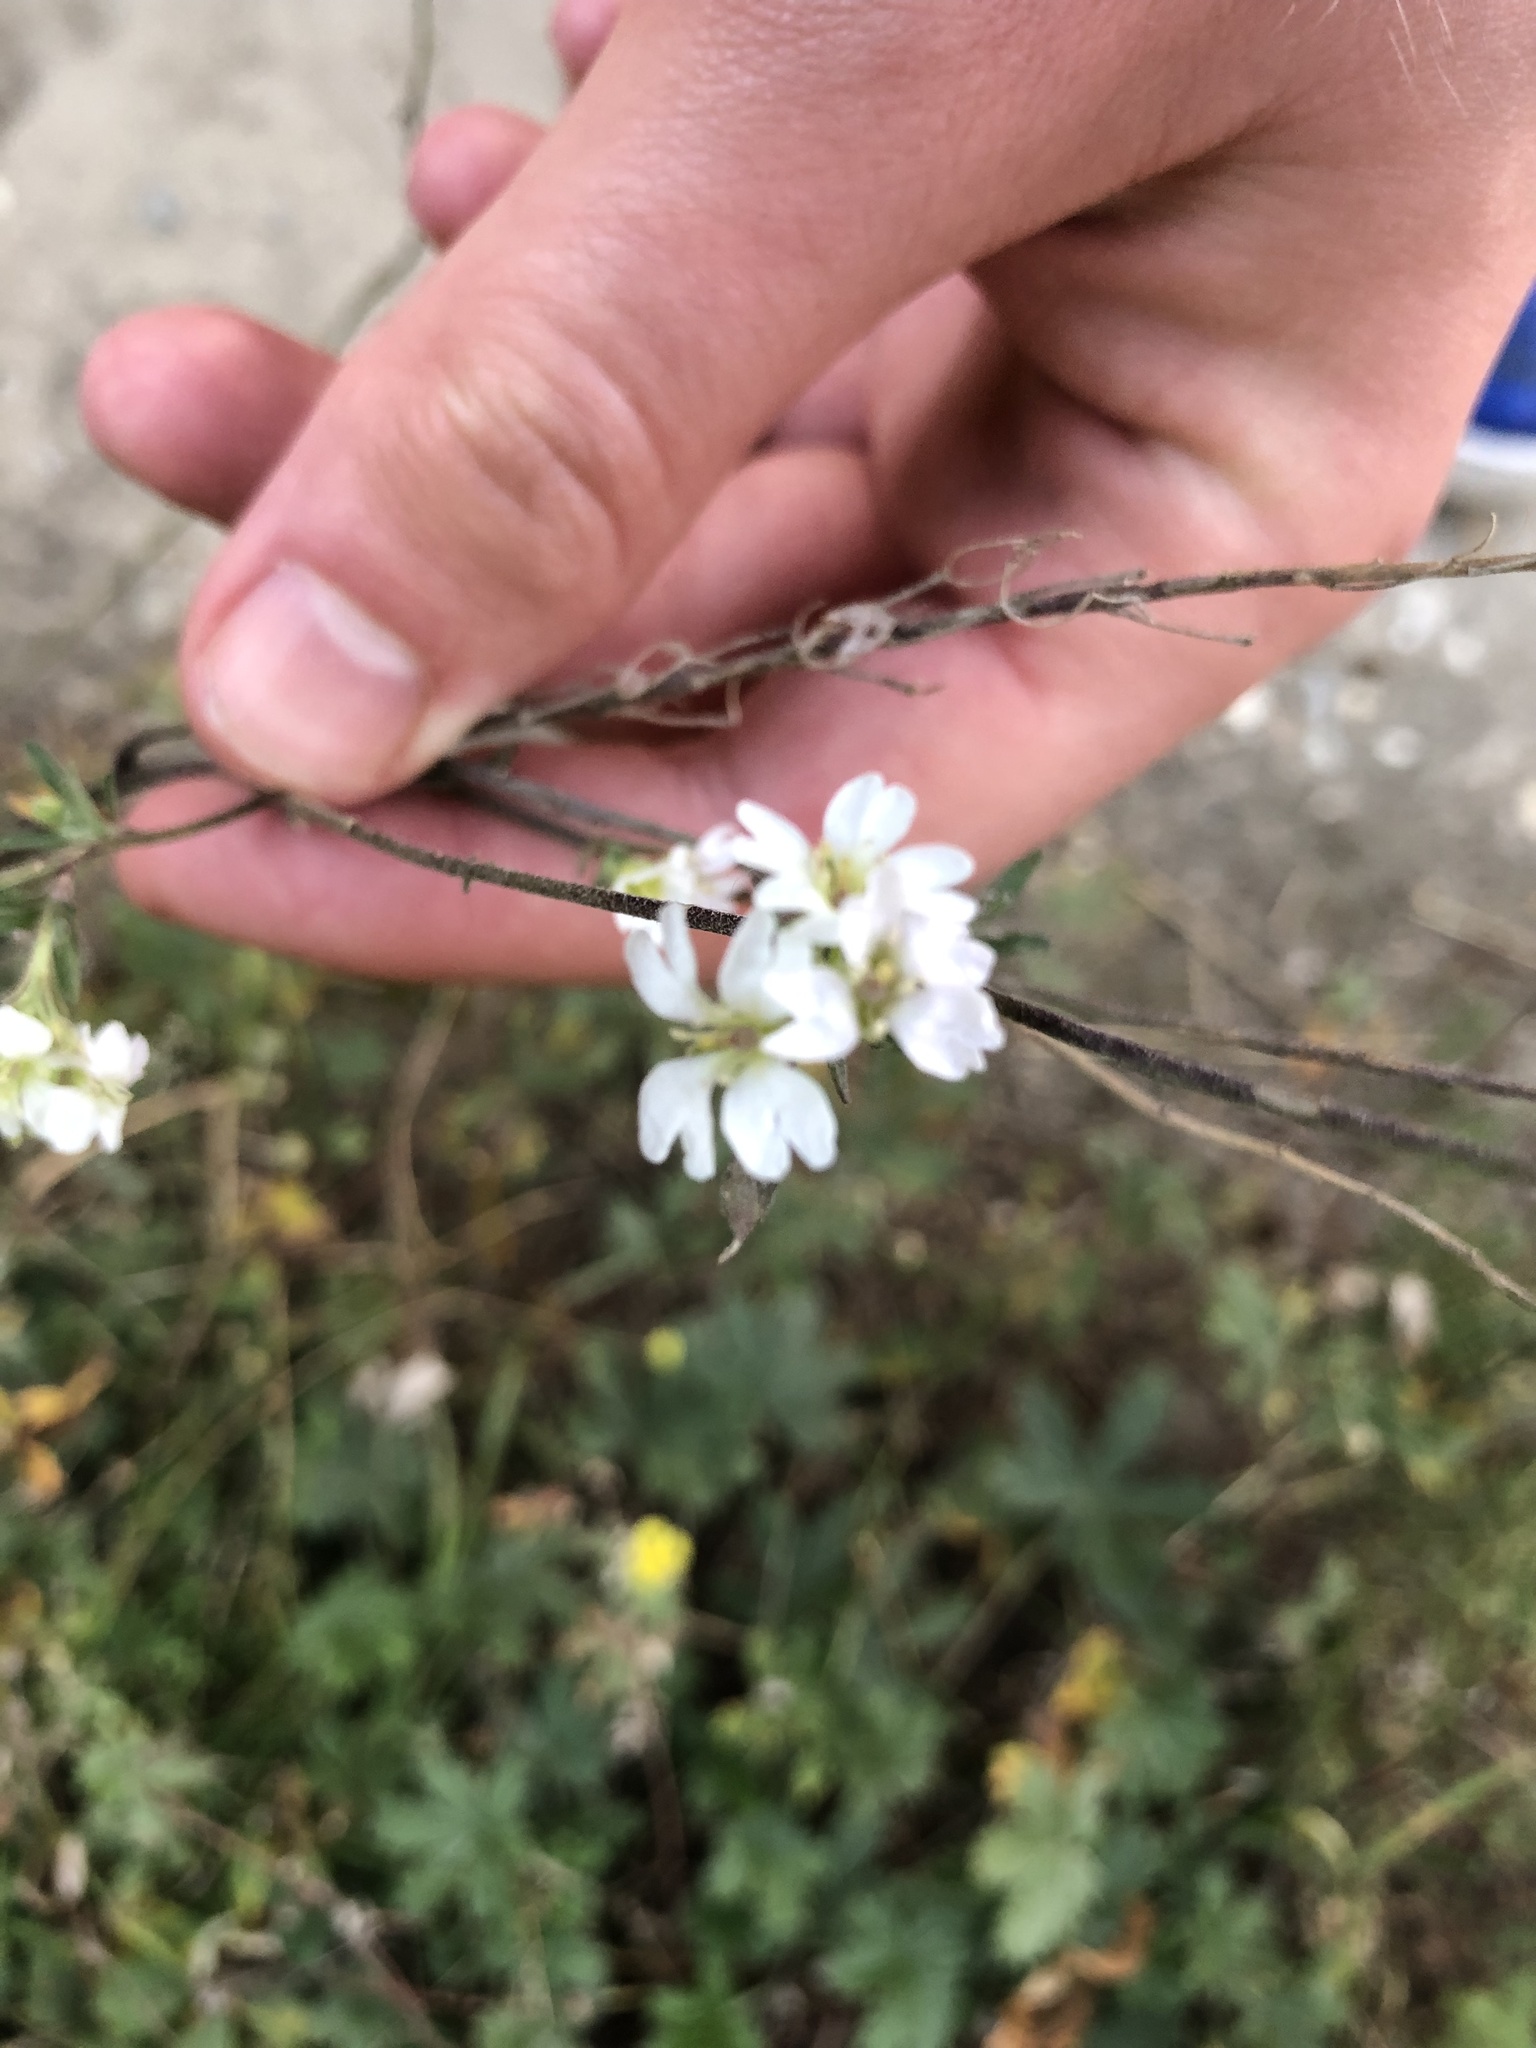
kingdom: Plantae
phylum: Tracheophyta
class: Magnoliopsida
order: Brassicales
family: Brassicaceae
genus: Berteroa
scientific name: Berteroa incana
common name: Hoary alison
